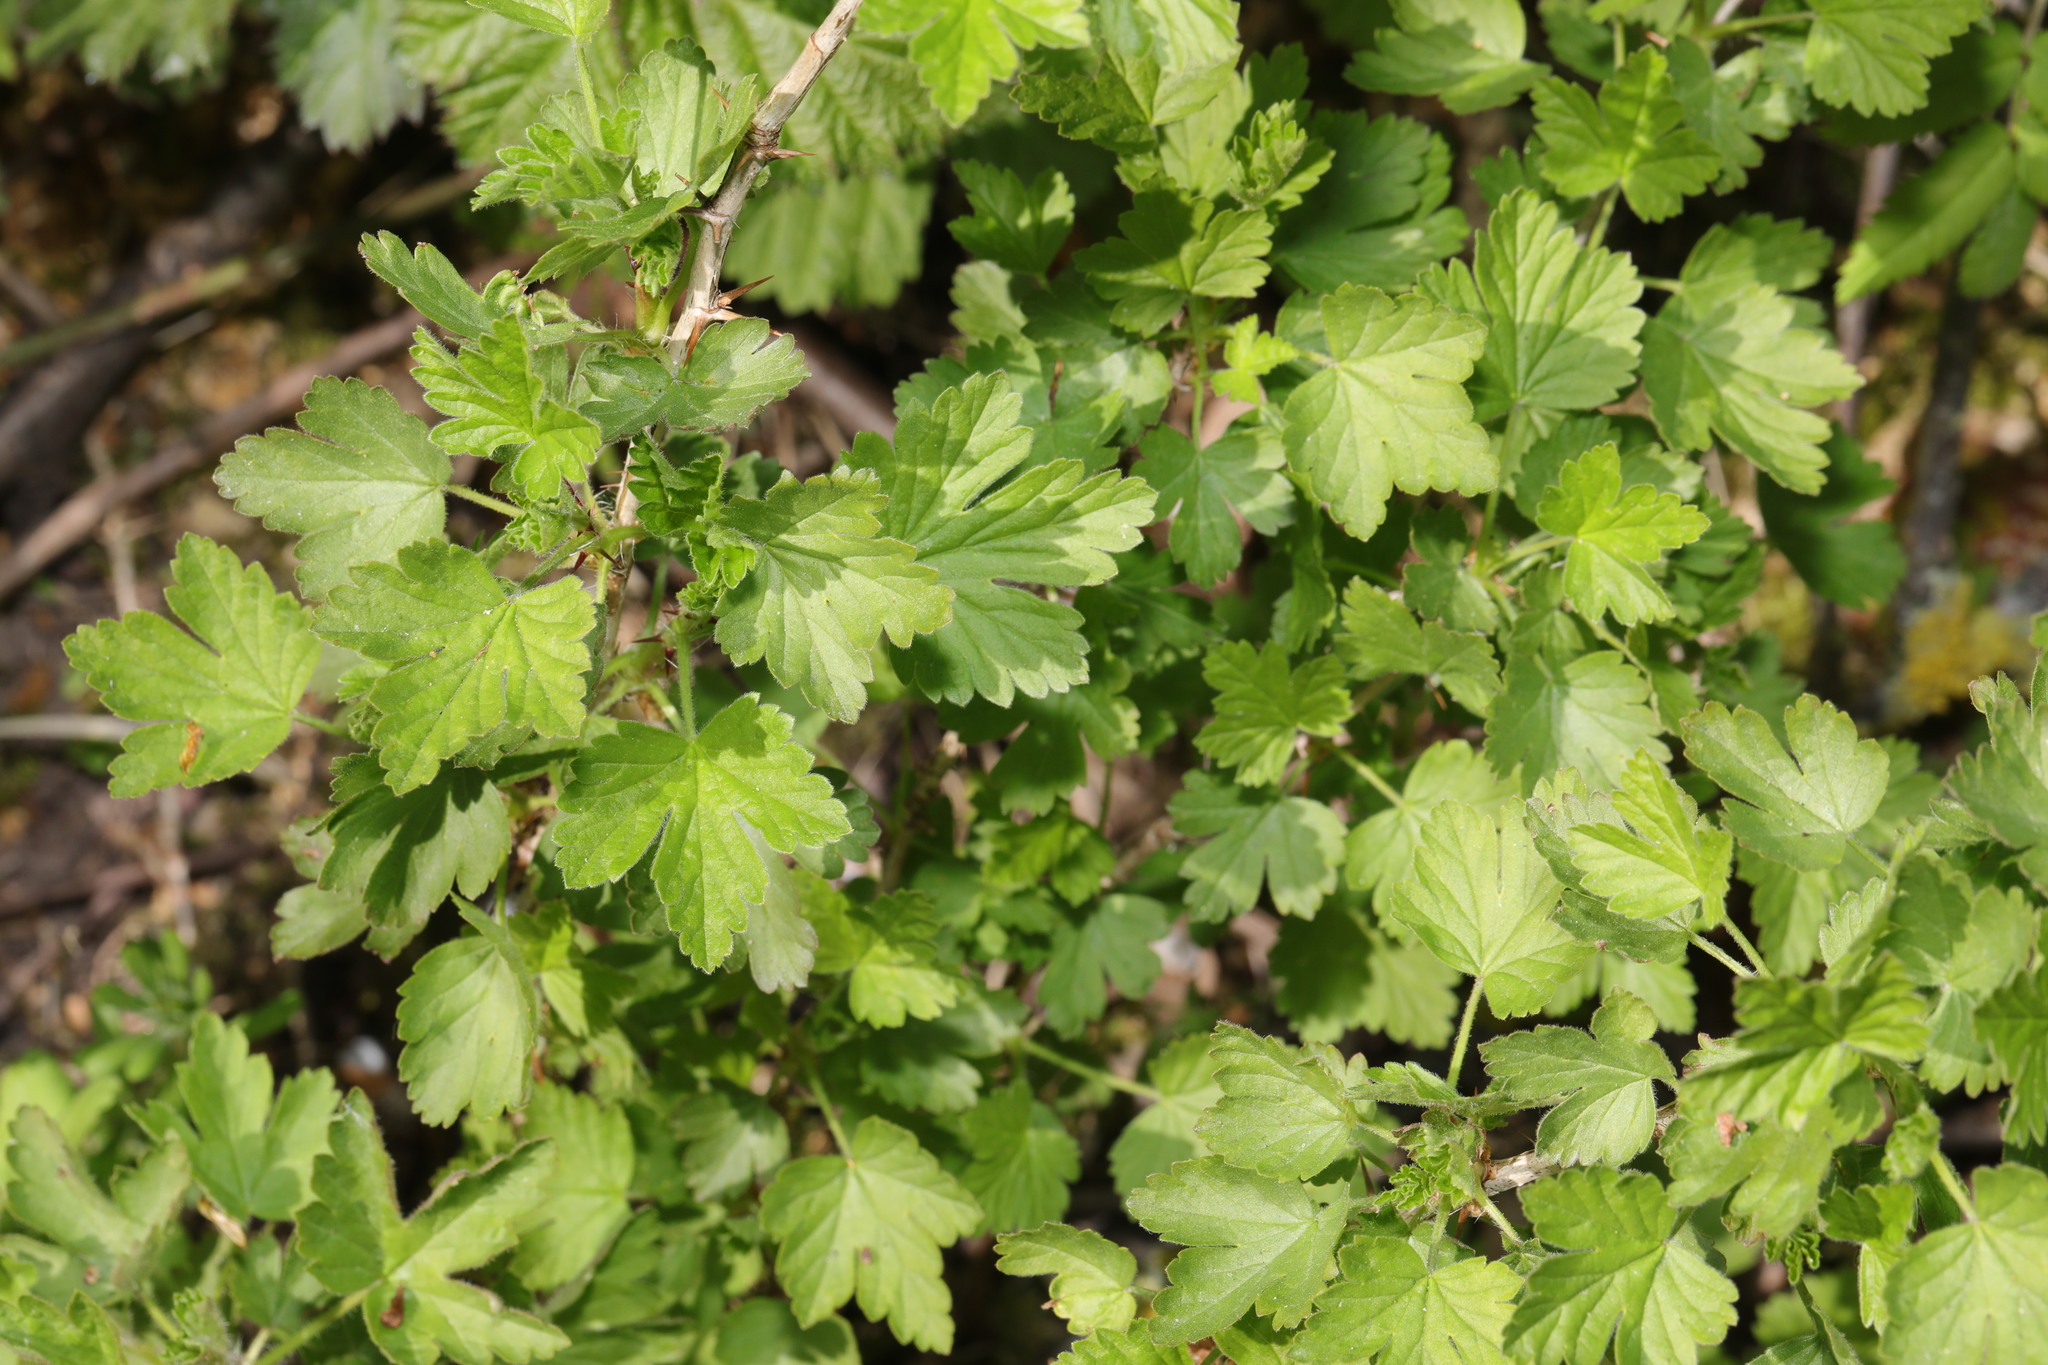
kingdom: Plantae
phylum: Tracheophyta
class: Magnoliopsida
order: Saxifragales
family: Grossulariaceae
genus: Ribes
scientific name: Ribes uva-crispa
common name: Gooseberry
